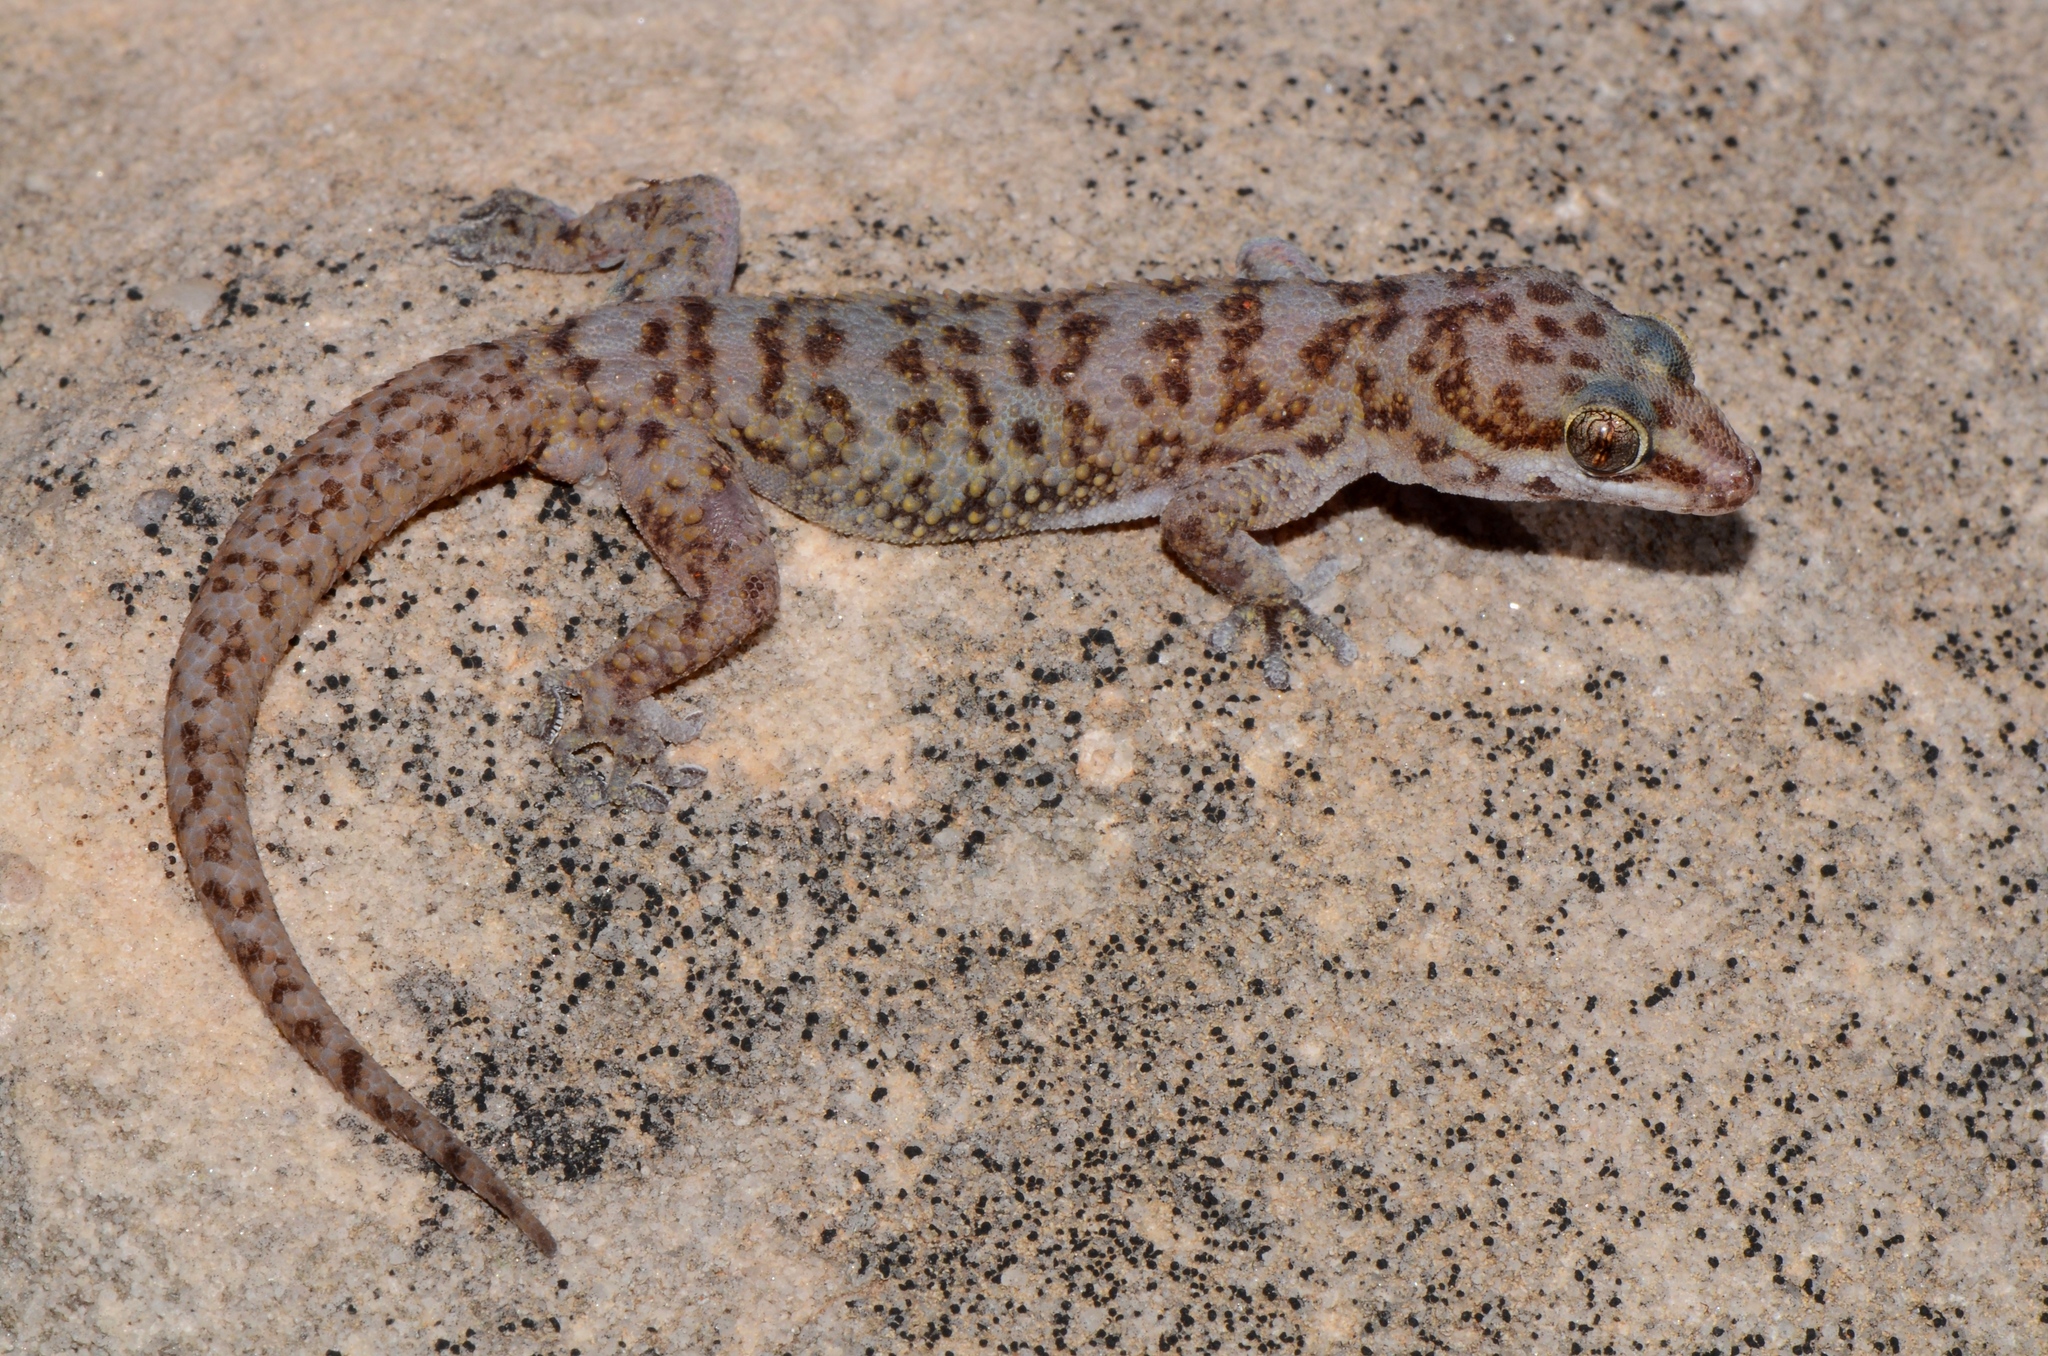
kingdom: Animalia
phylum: Chordata
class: Squamata
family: Gekkonidae
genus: Pachydactylus
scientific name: Pachydactylus weberi
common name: Weber's gecko
